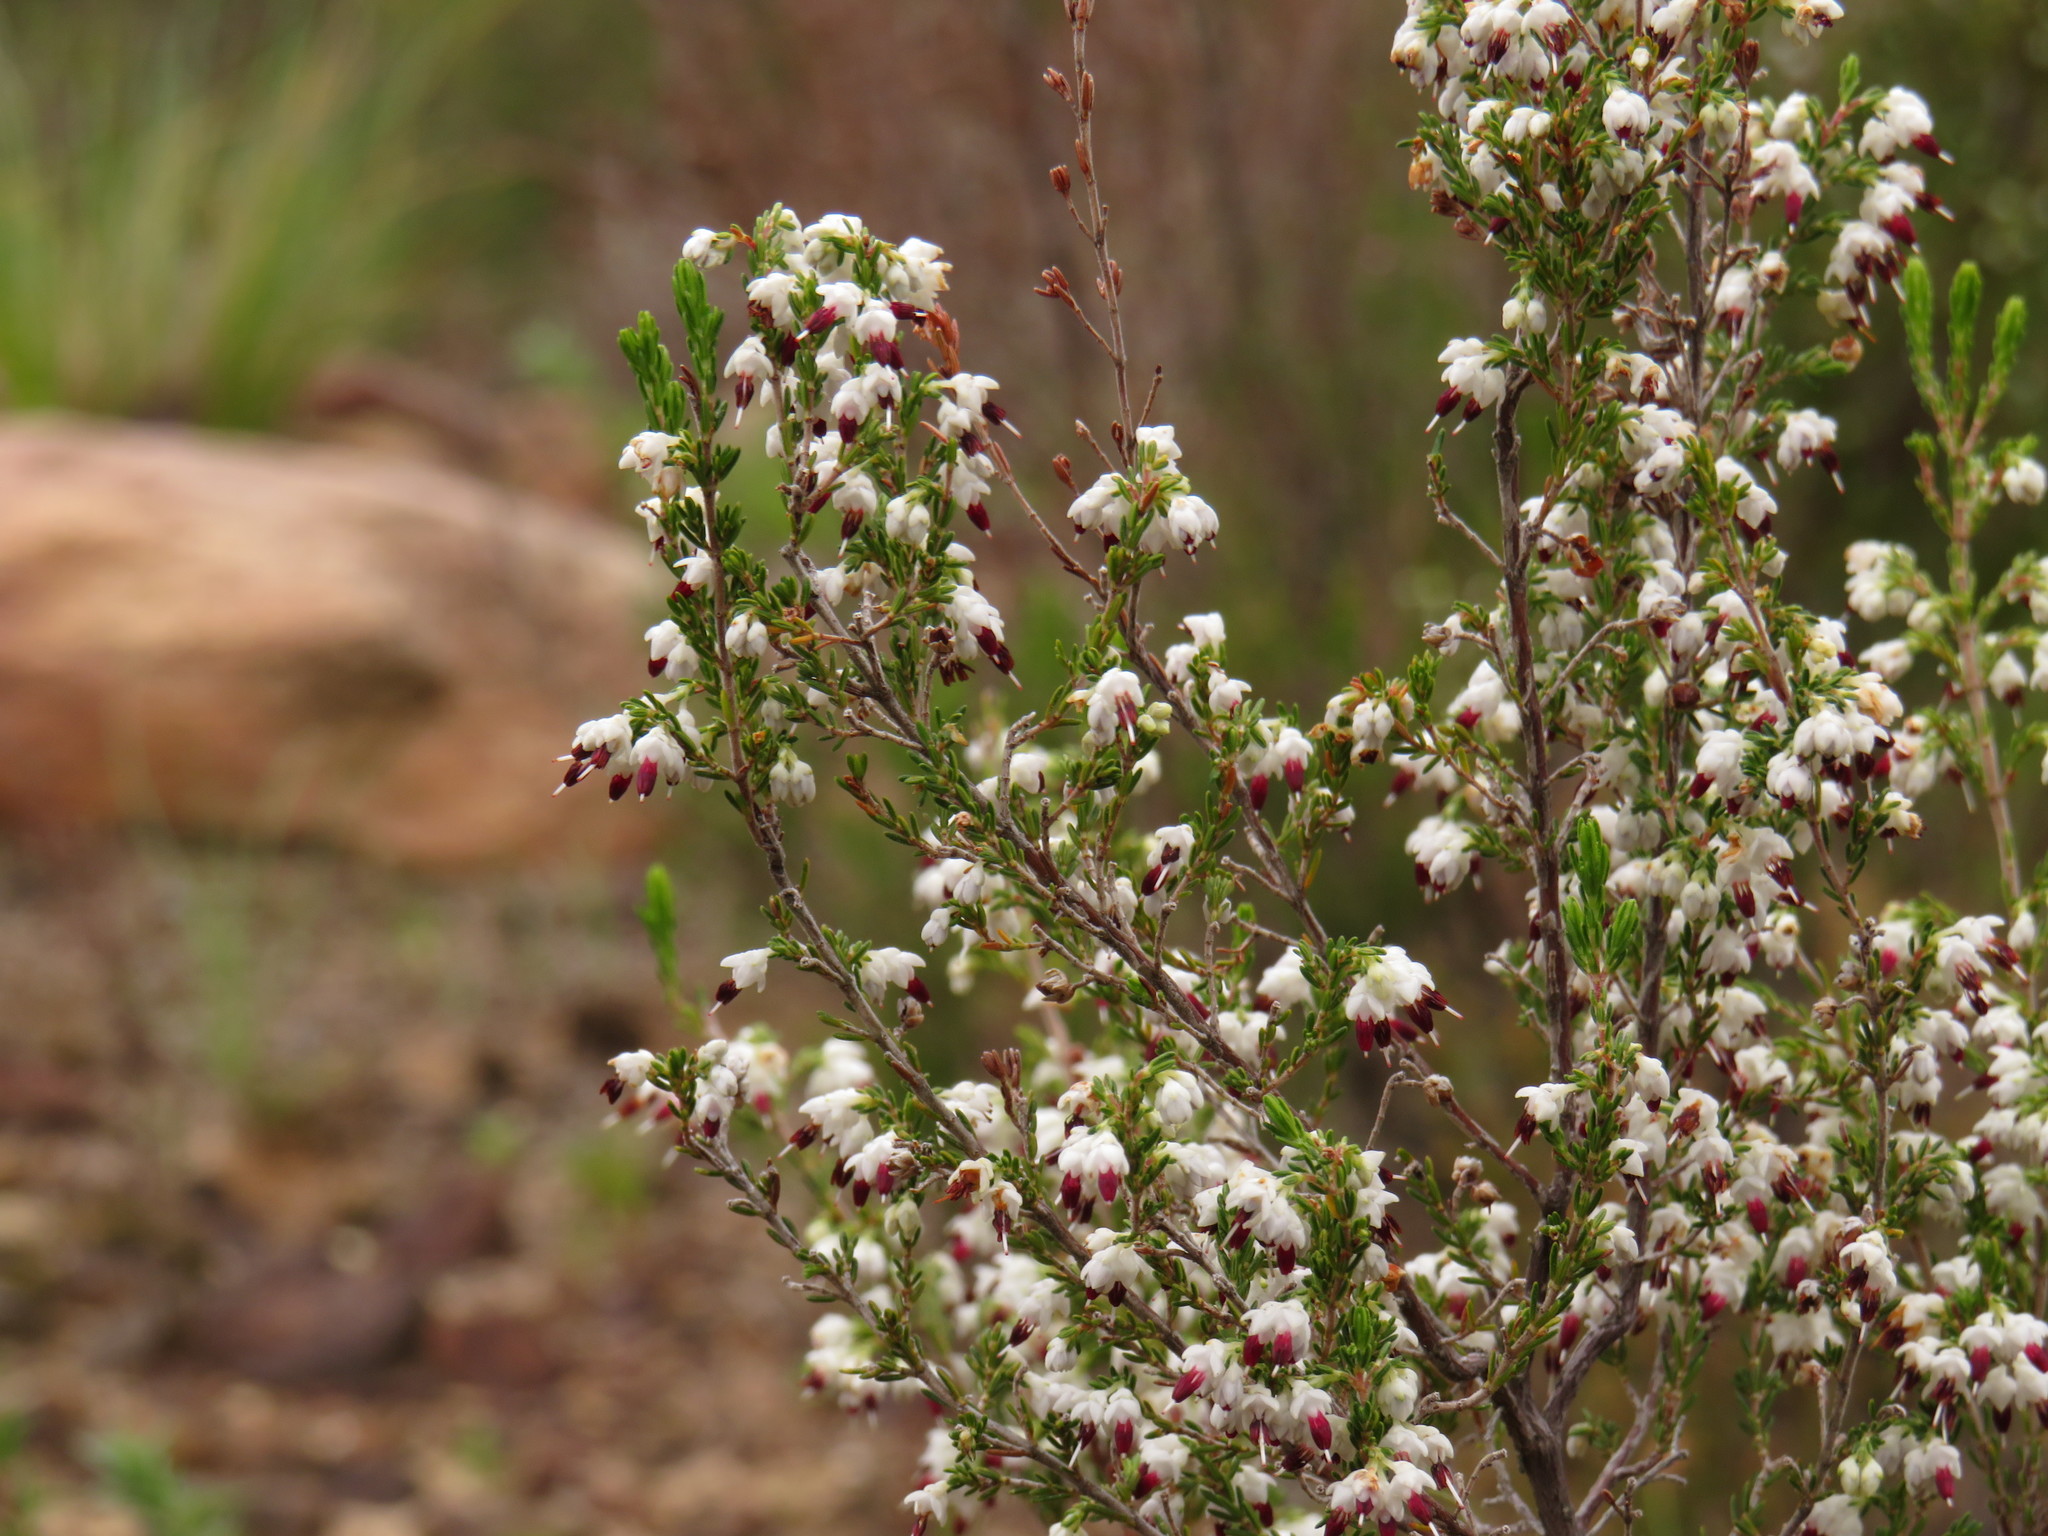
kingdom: Plantae
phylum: Tracheophyta
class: Magnoliopsida
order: Ericales
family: Ericaceae
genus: Erica
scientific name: Erica imbricata
